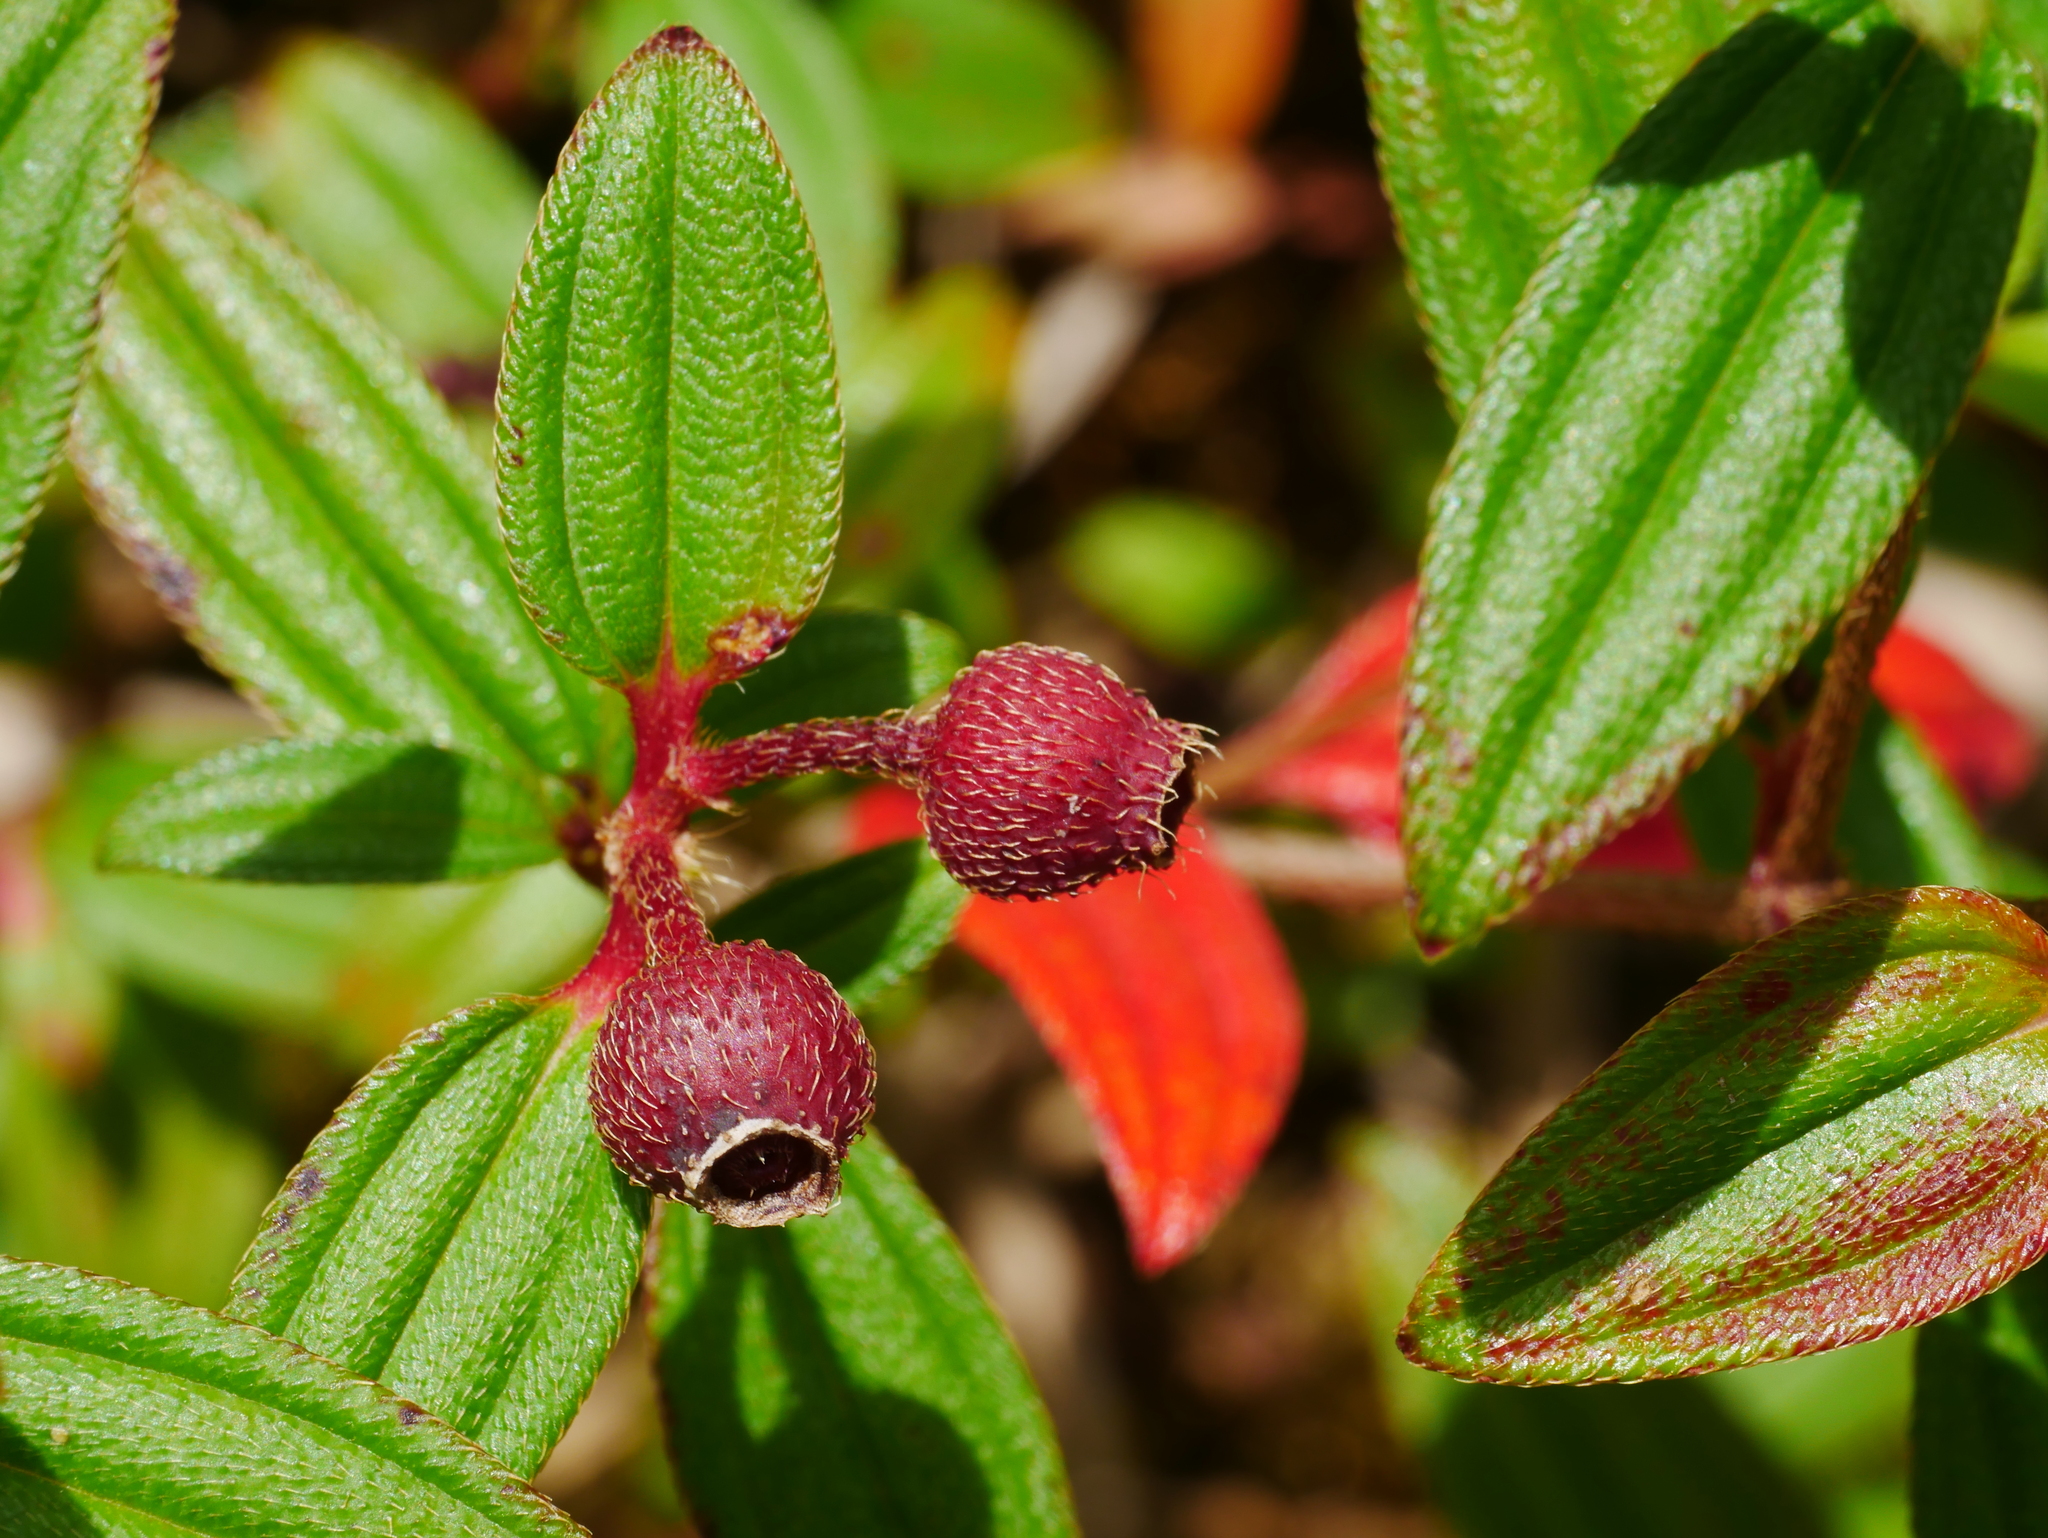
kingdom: Plantae
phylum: Tracheophyta
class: Magnoliopsida
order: Myrtales
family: Melastomataceae
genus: Melastoma
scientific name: Melastoma scaberrima
